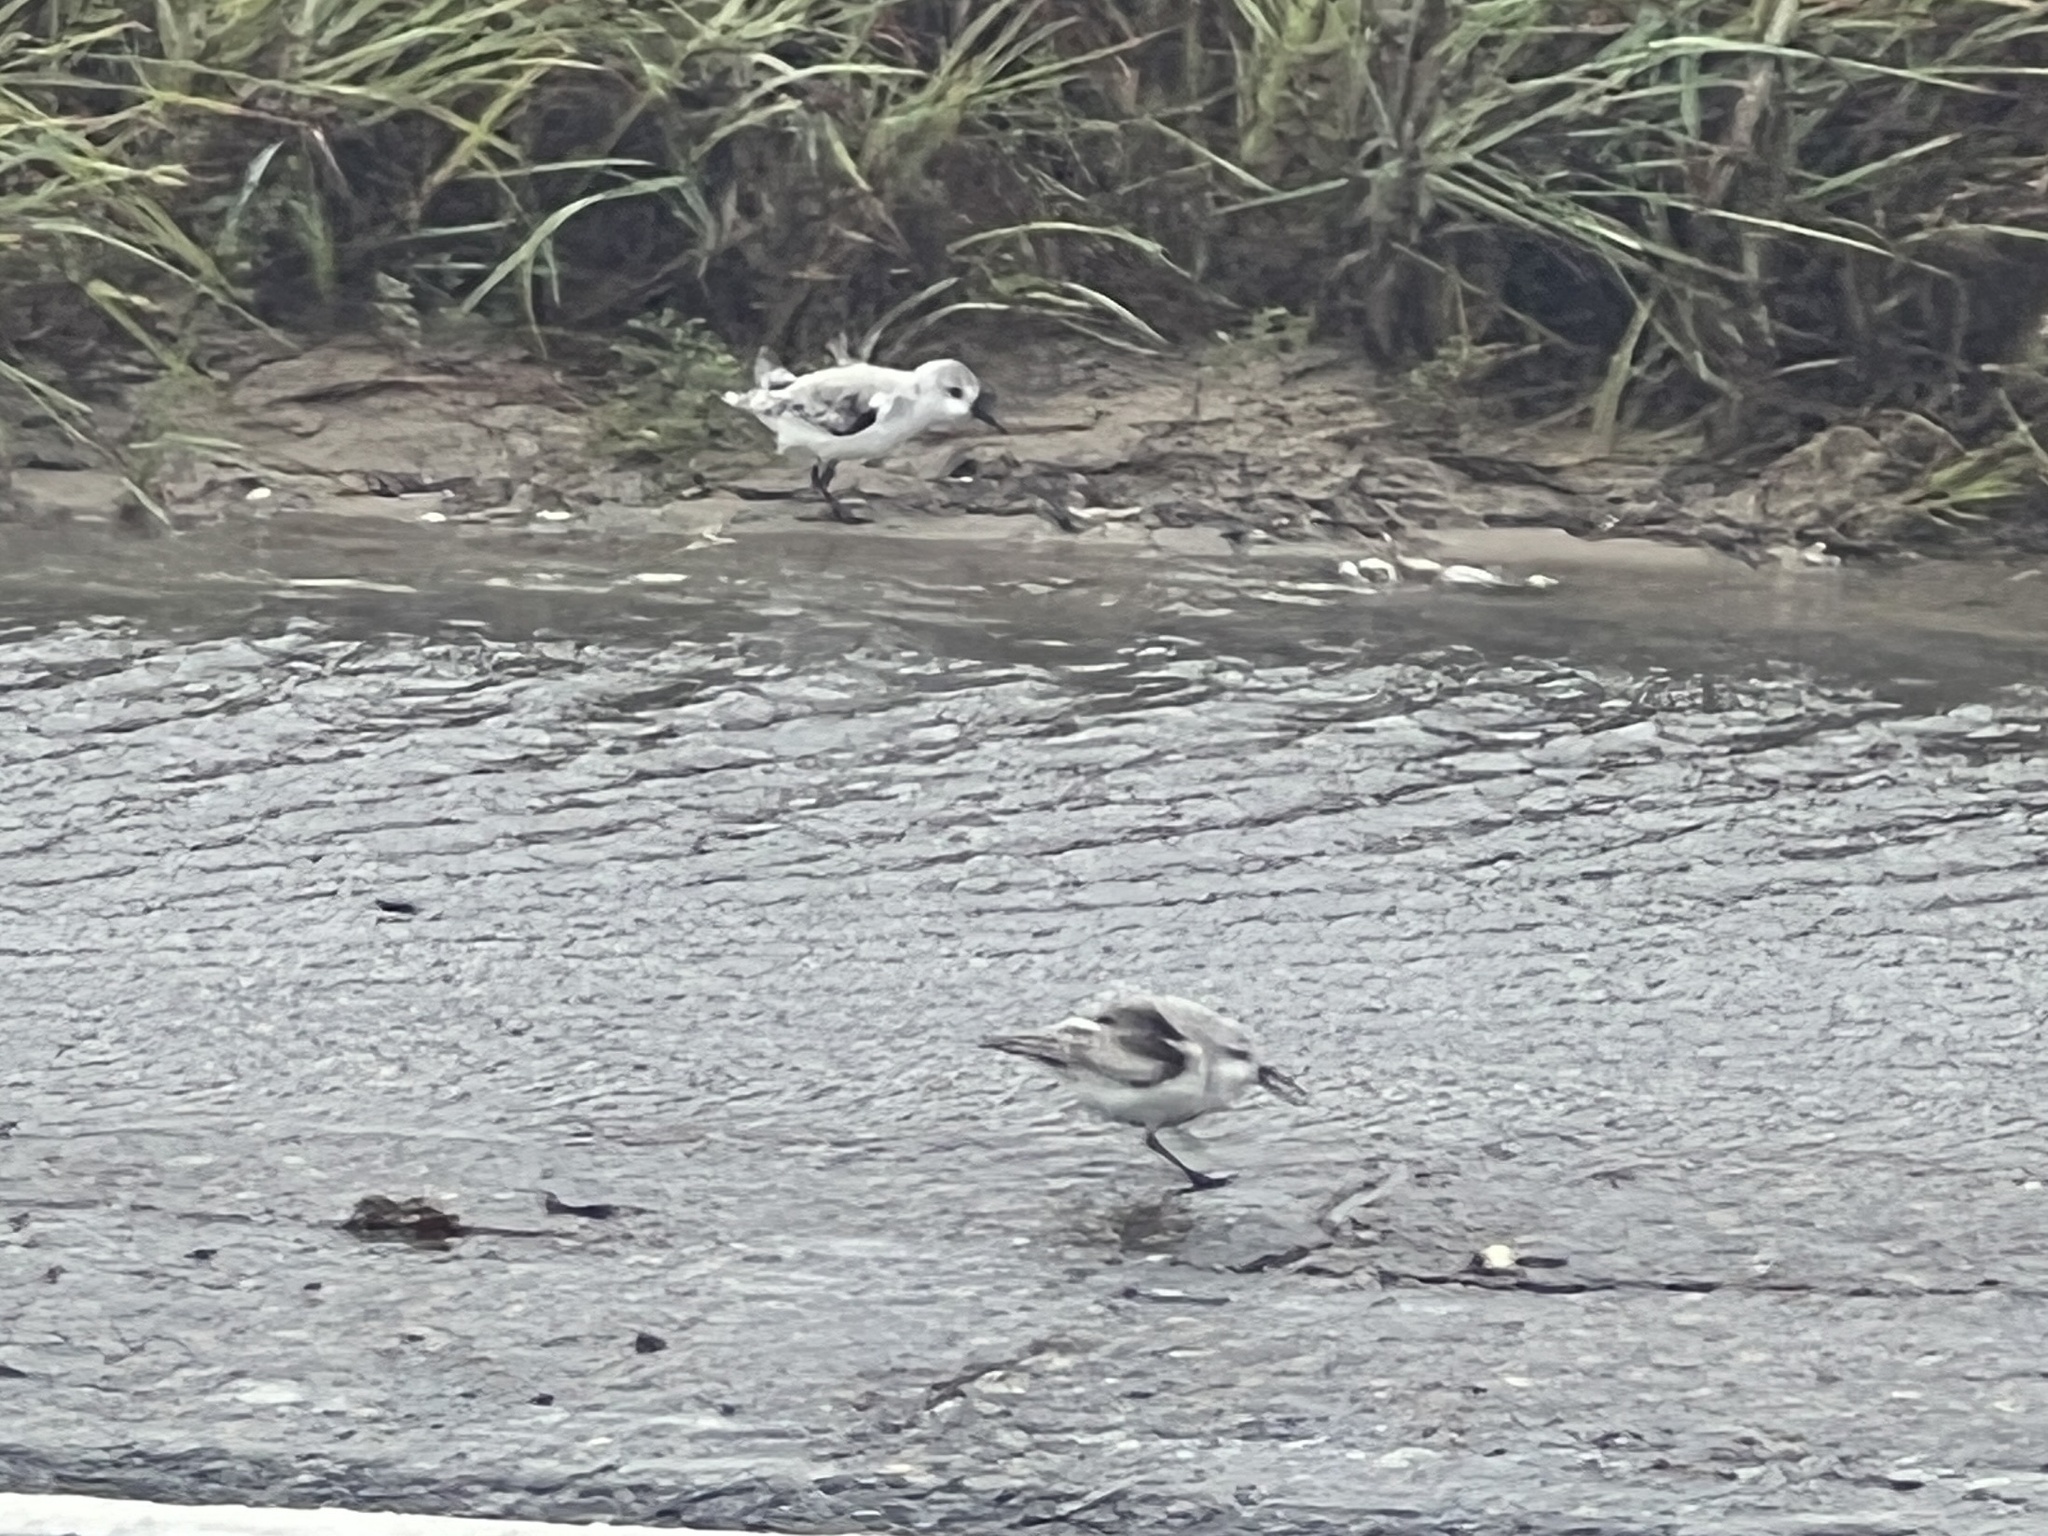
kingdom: Animalia
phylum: Chordata
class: Aves
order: Charadriiformes
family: Scolopacidae
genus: Calidris
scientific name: Calidris alba
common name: Sanderling
